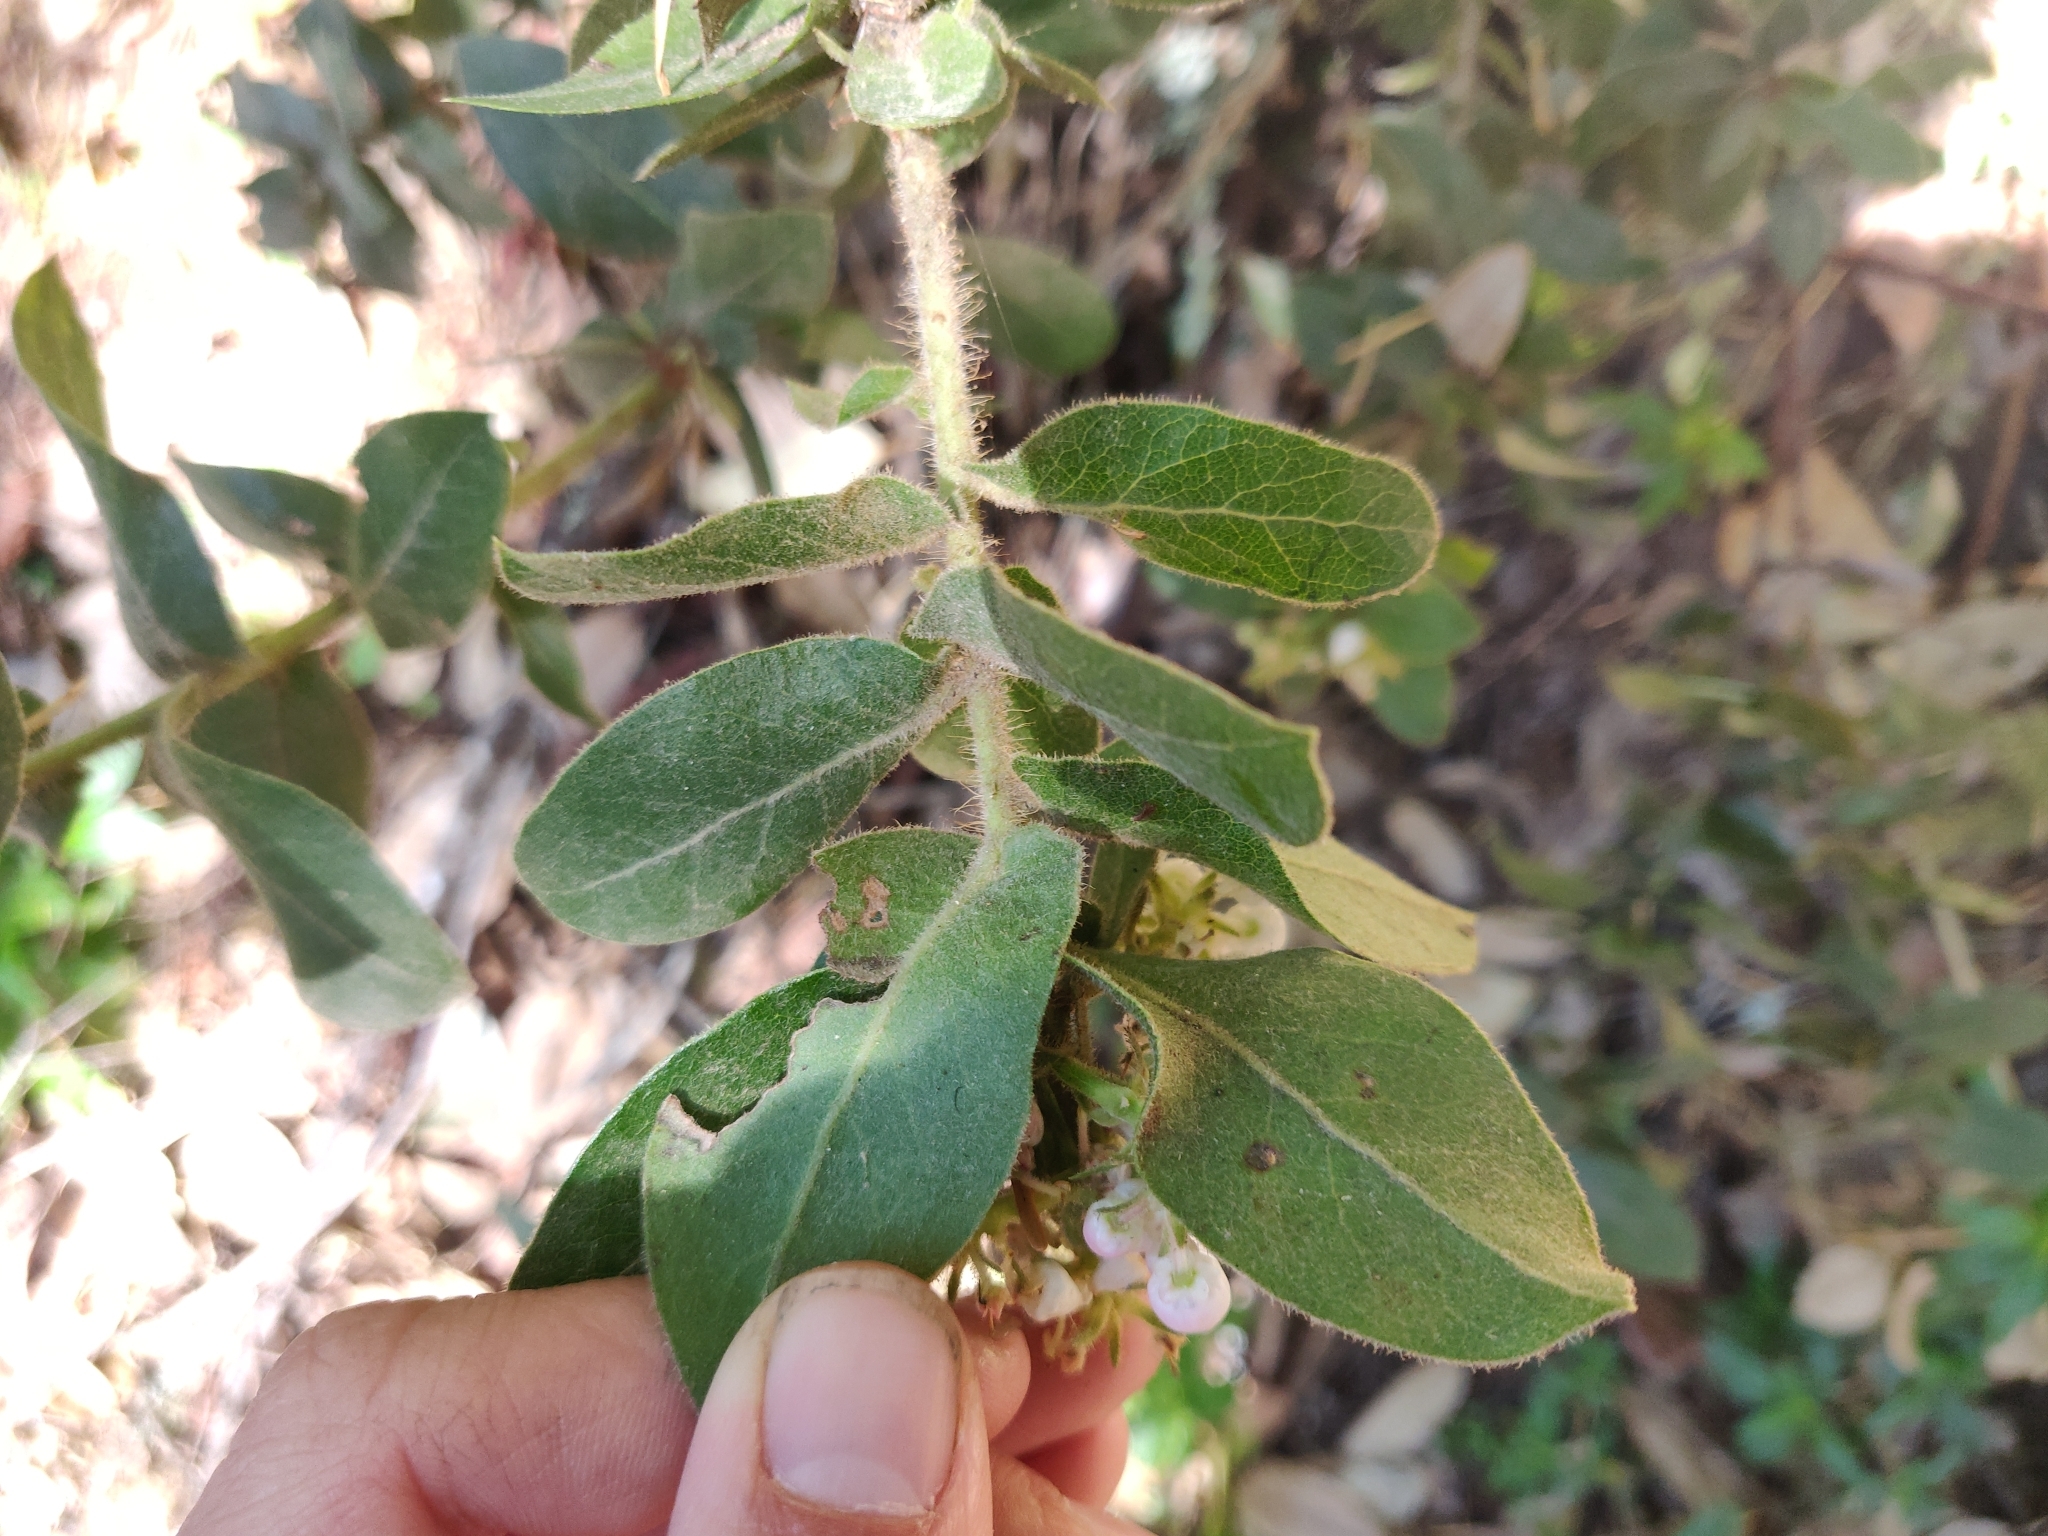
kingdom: Plantae
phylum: Tracheophyta
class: Magnoliopsida
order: Ericales
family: Ericaceae
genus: Arctostaphylos
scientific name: Arctostaphylos regismontana
